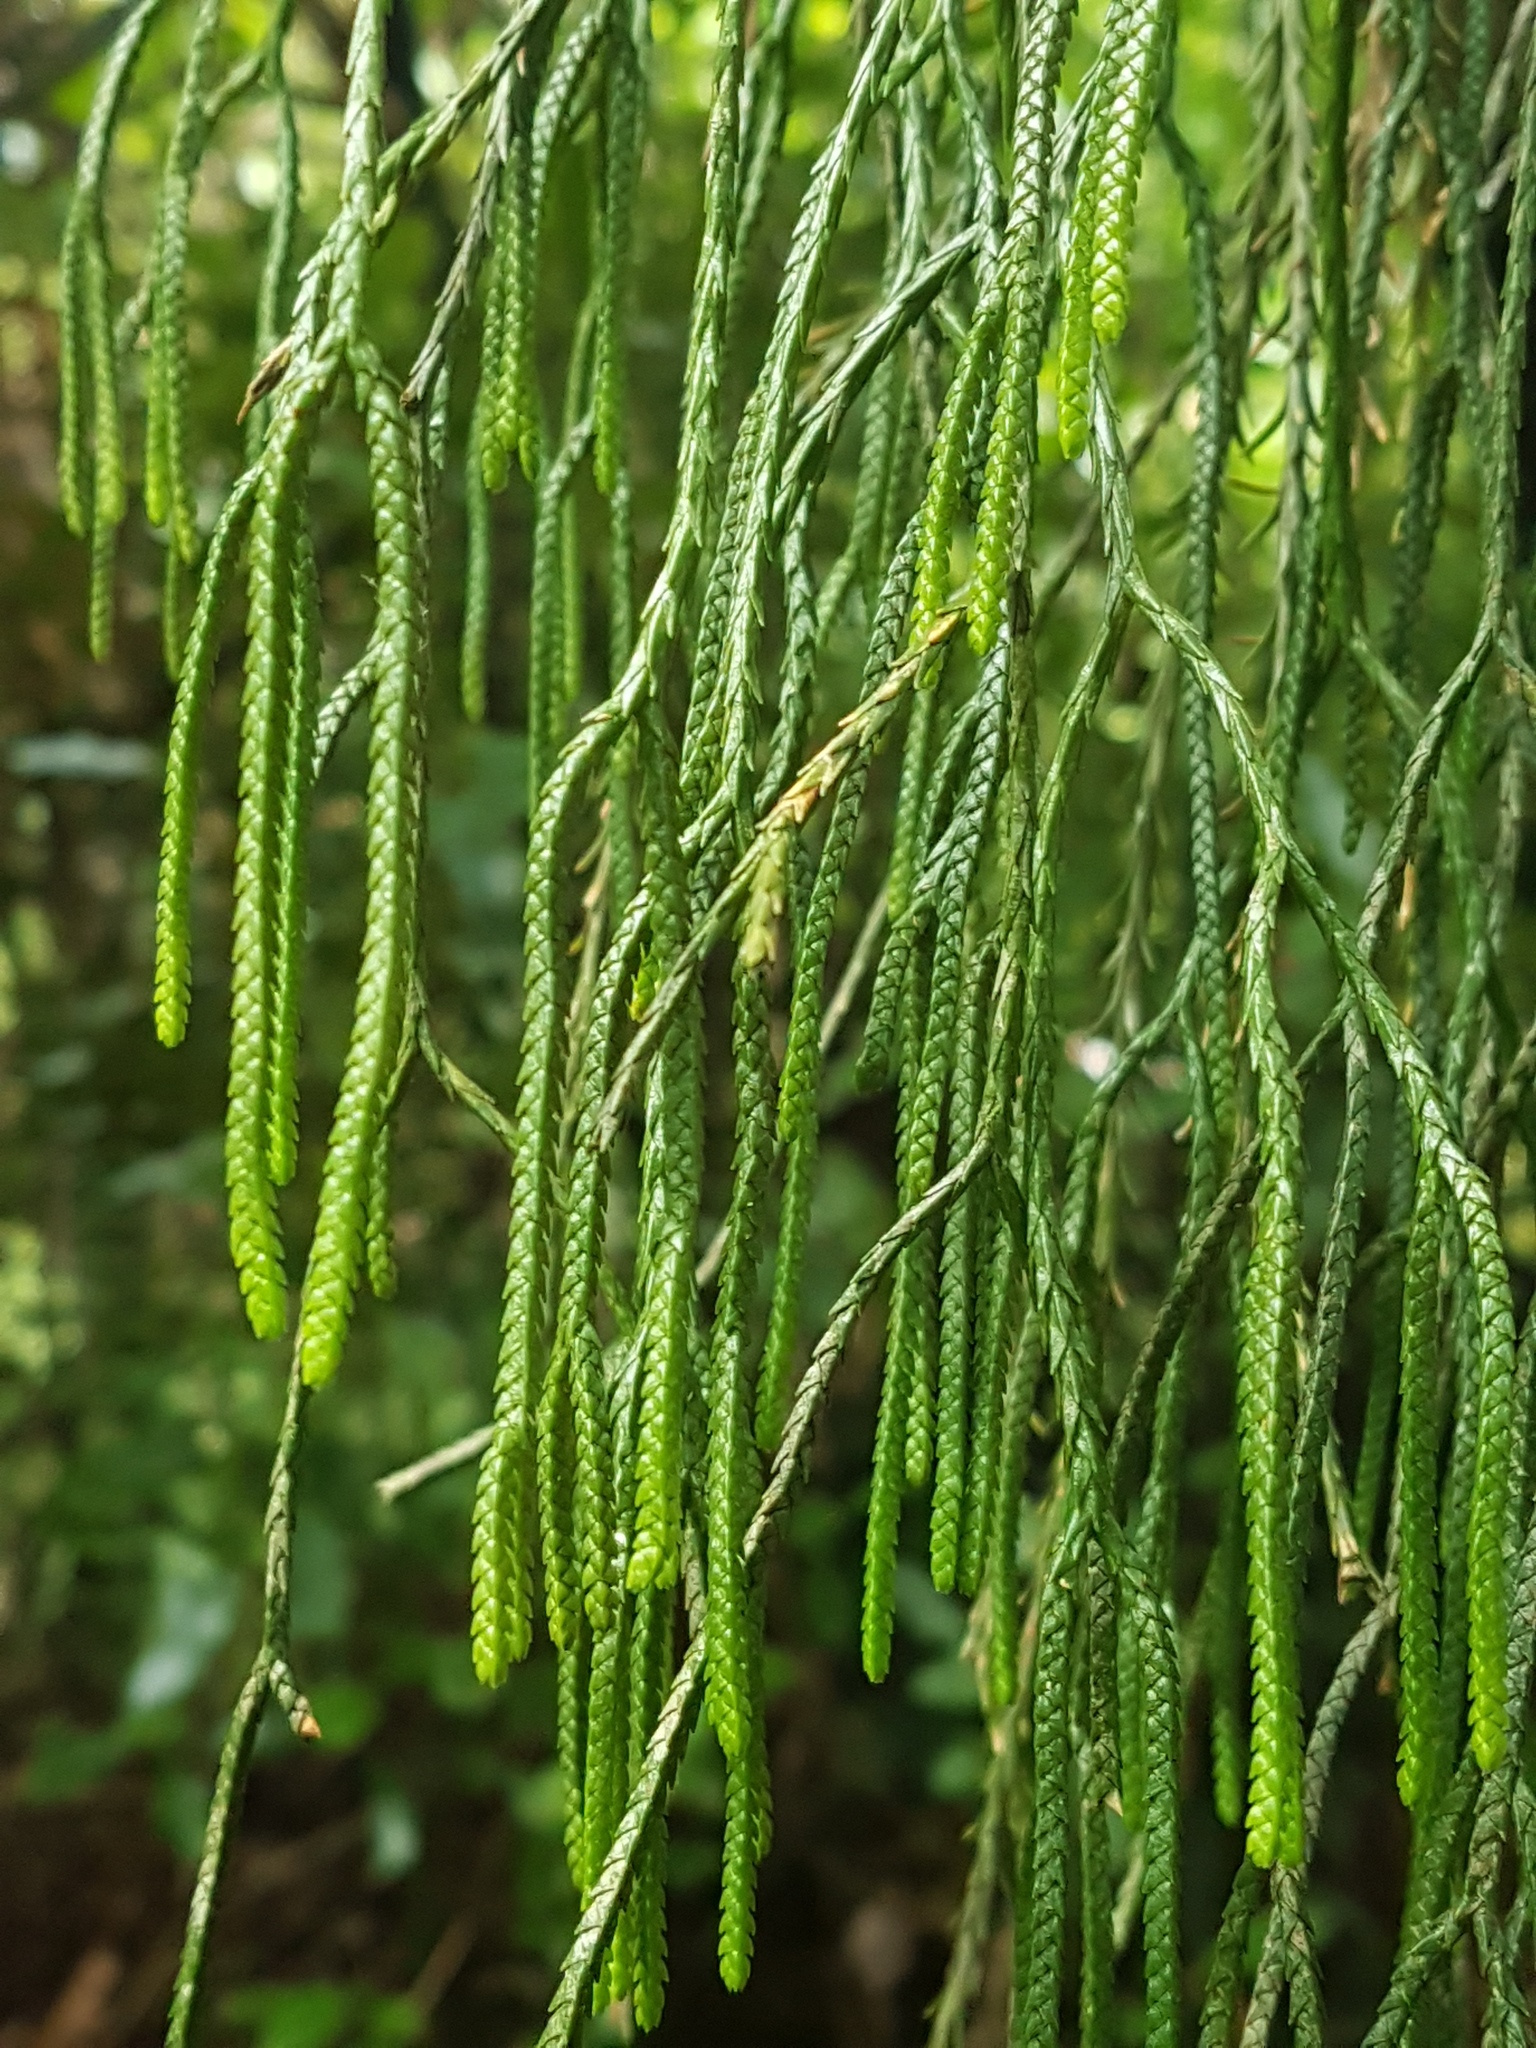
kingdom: Plantae
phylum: Tracheophyta
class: Lycopodiopsida
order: Lycopodiales
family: Lycopodiaceae
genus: Phlegmariurus
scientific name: Phlegmariurus varius
